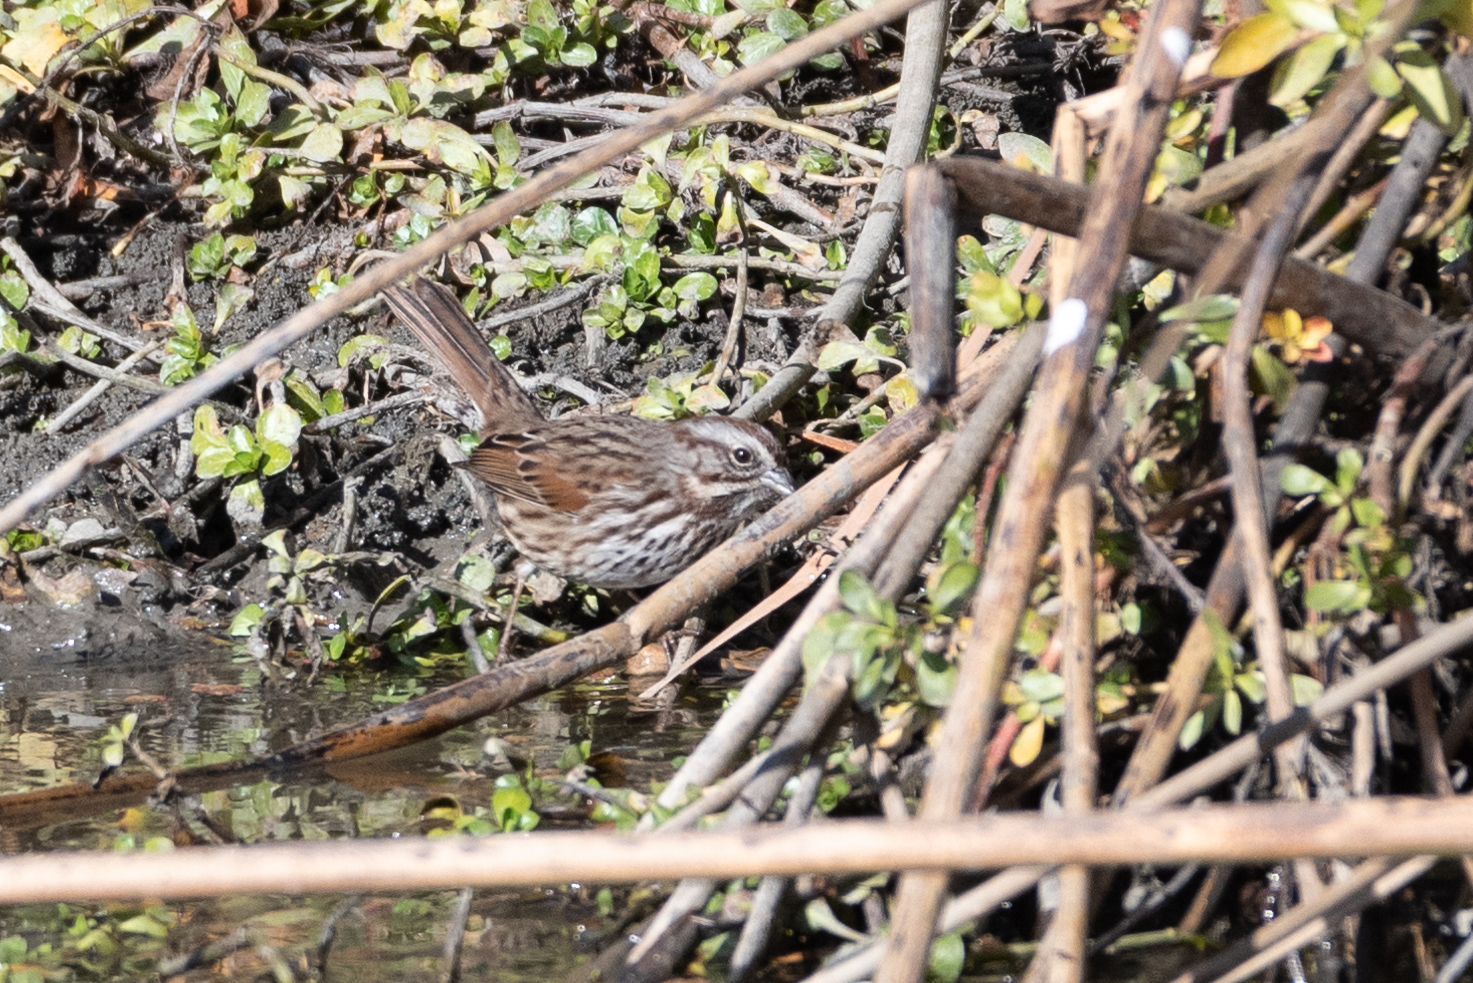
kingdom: Animalia
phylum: Chordata
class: Aves
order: Passeriformes
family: Passerellidae
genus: Melospiza
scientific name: Melospiza melodia
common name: Song sparrow
